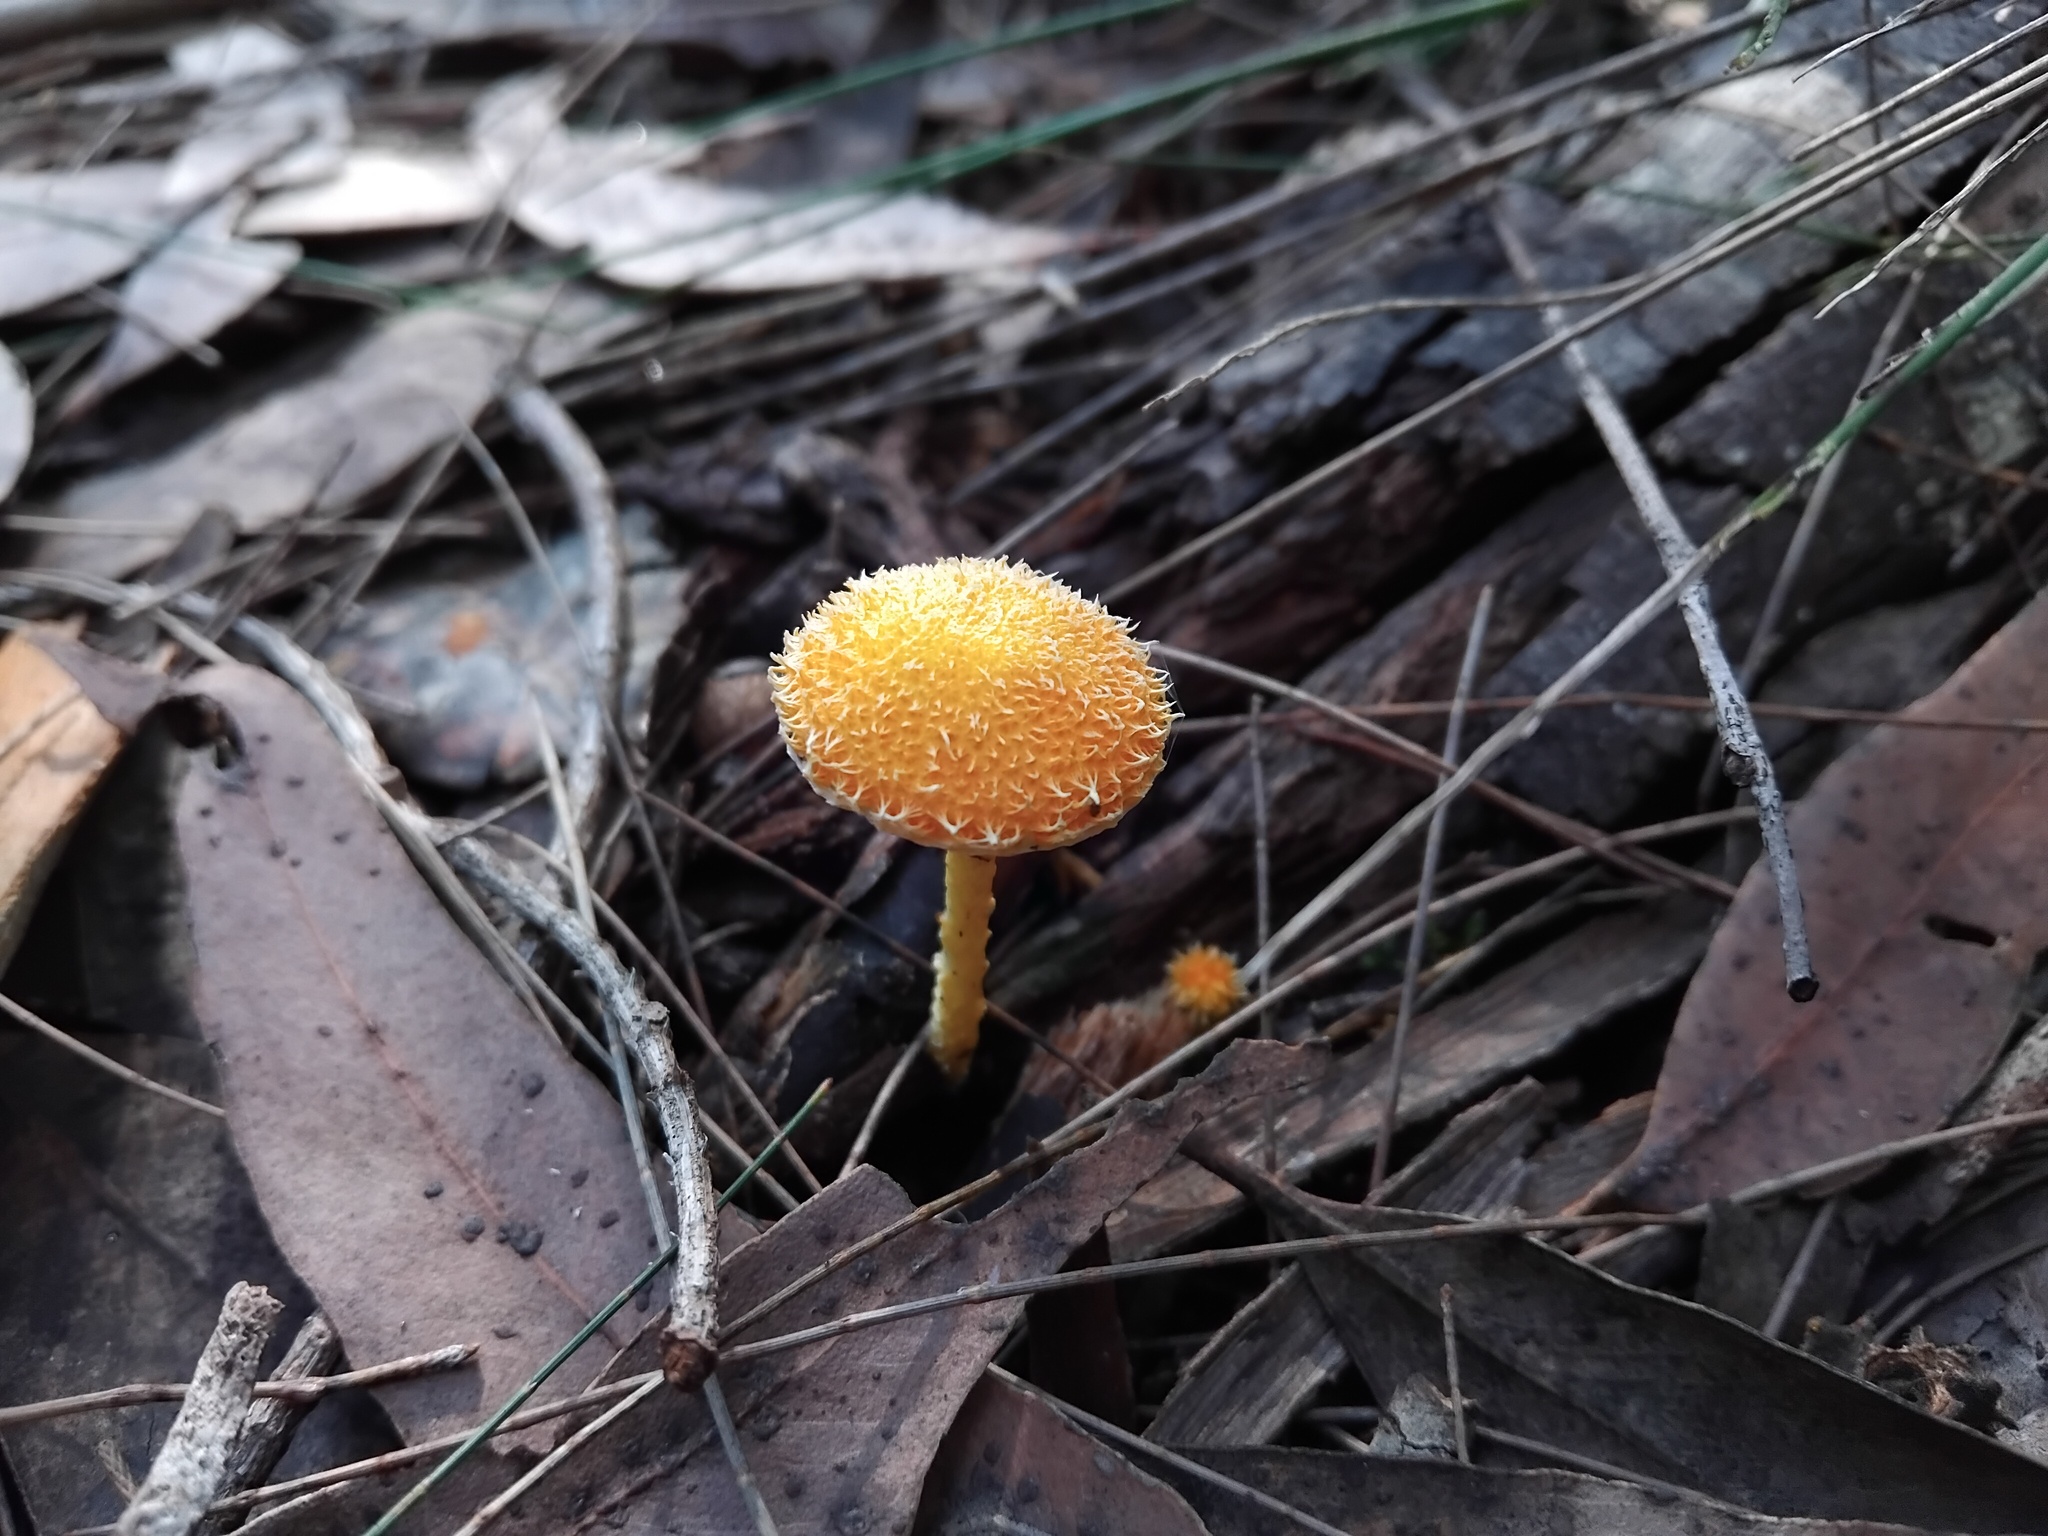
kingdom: Fungi
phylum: Basidiomycota
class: Agaricomycetes
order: Agaricales
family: Physalacriaceae
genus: Cyptotrama
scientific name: Cyptotrama asprata
